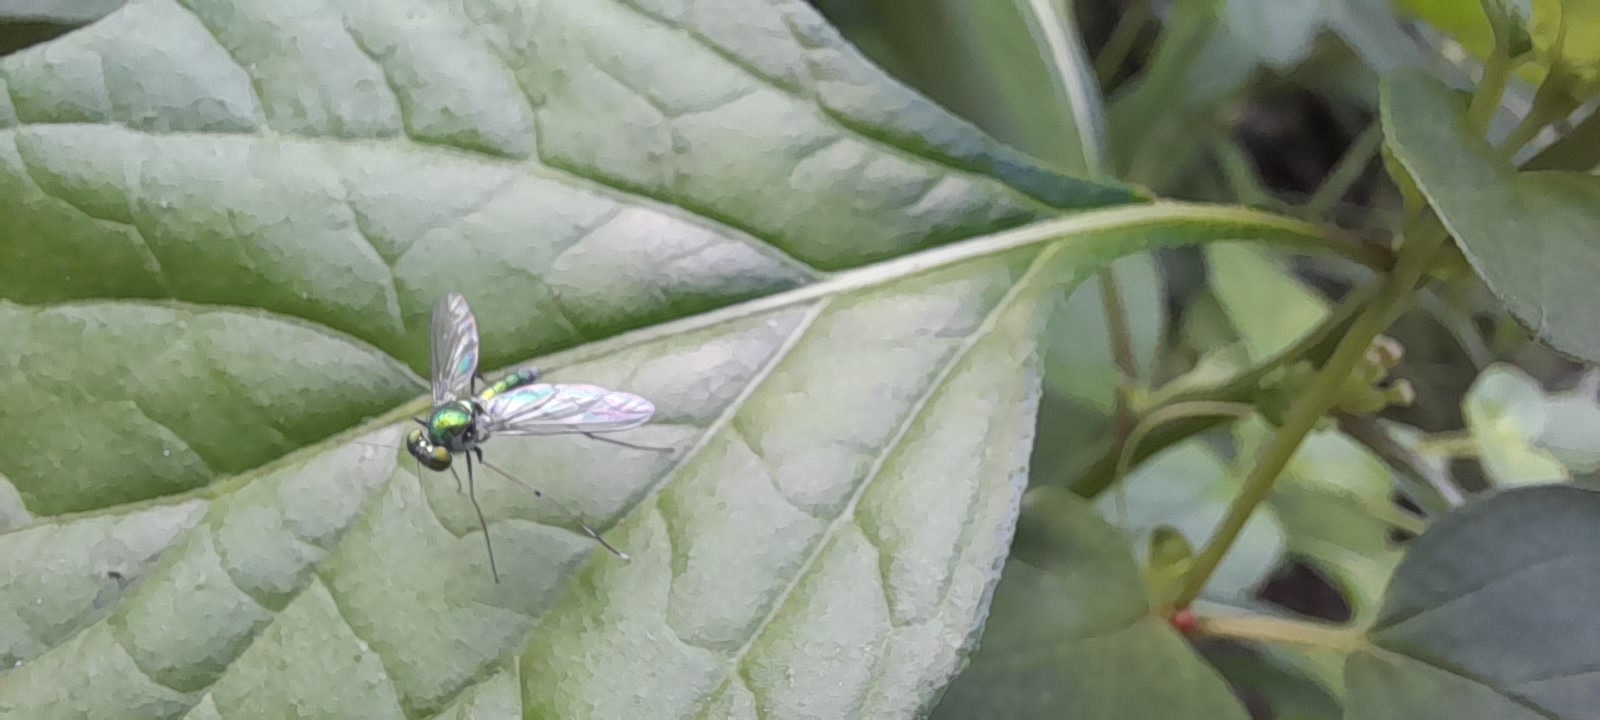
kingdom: Animalia
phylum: Arthropoda
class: Insecta
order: Diptera
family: Dolichopodidae
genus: Chrysosoma
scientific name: Chrysosoma leucopogon
